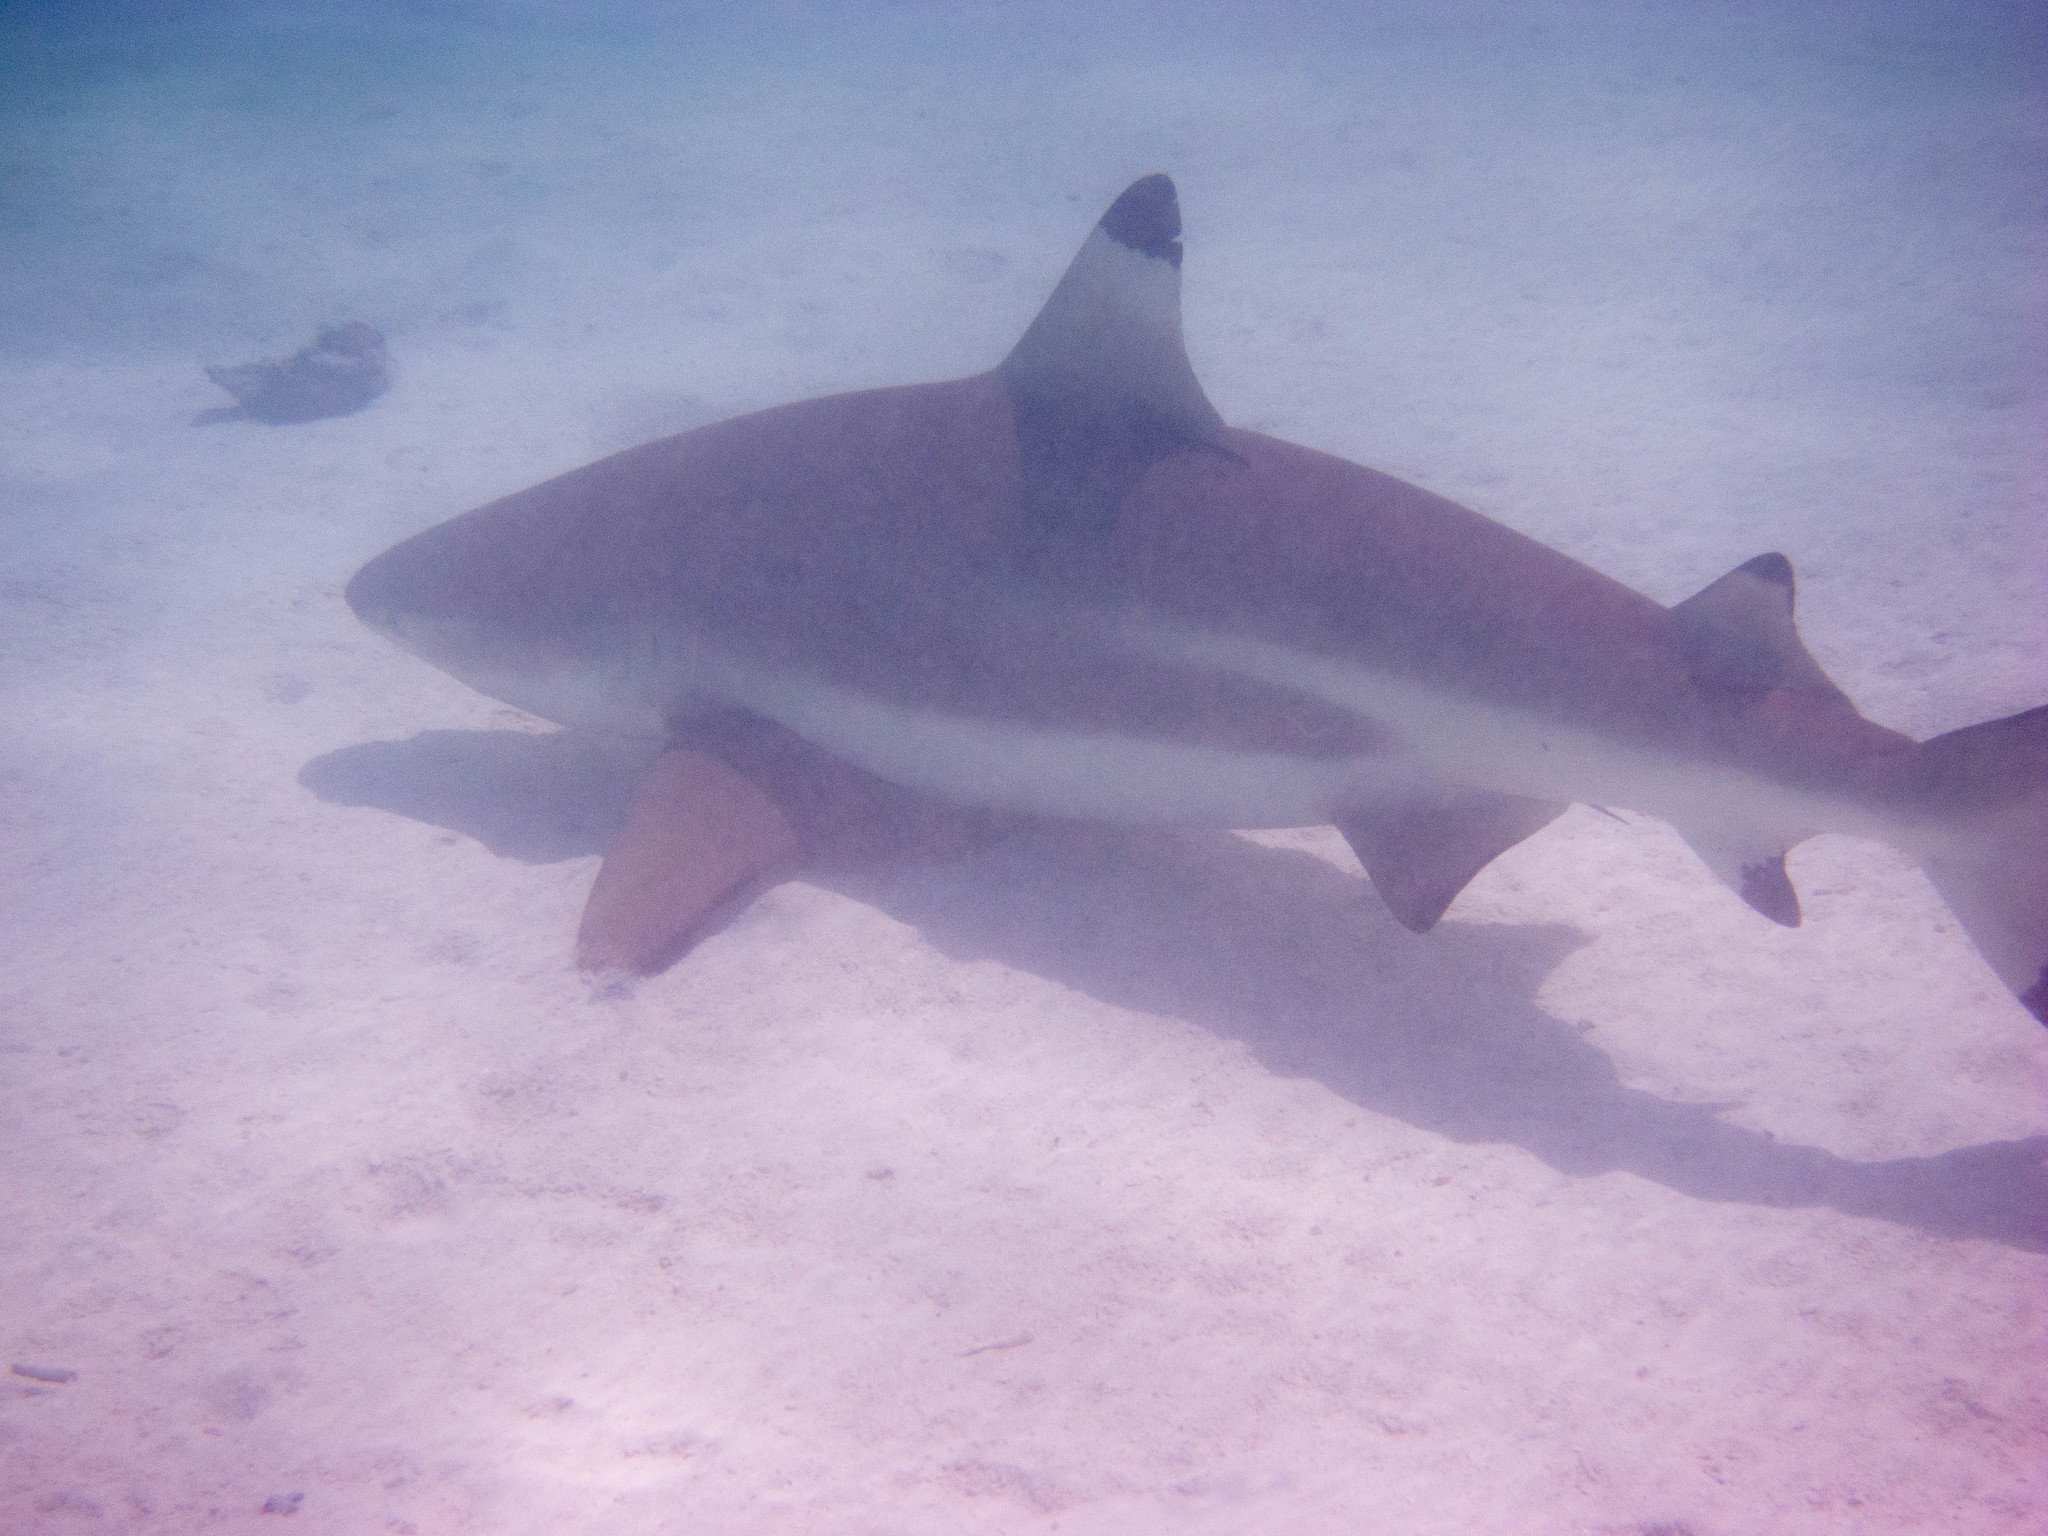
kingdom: Animalia
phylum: Chordata
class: Elasmobranchii
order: Carcharhiniformes
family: Carcharhinidae
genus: Carcharhinus
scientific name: Carcharhinus melanopterus
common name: Blacktip reef shark
